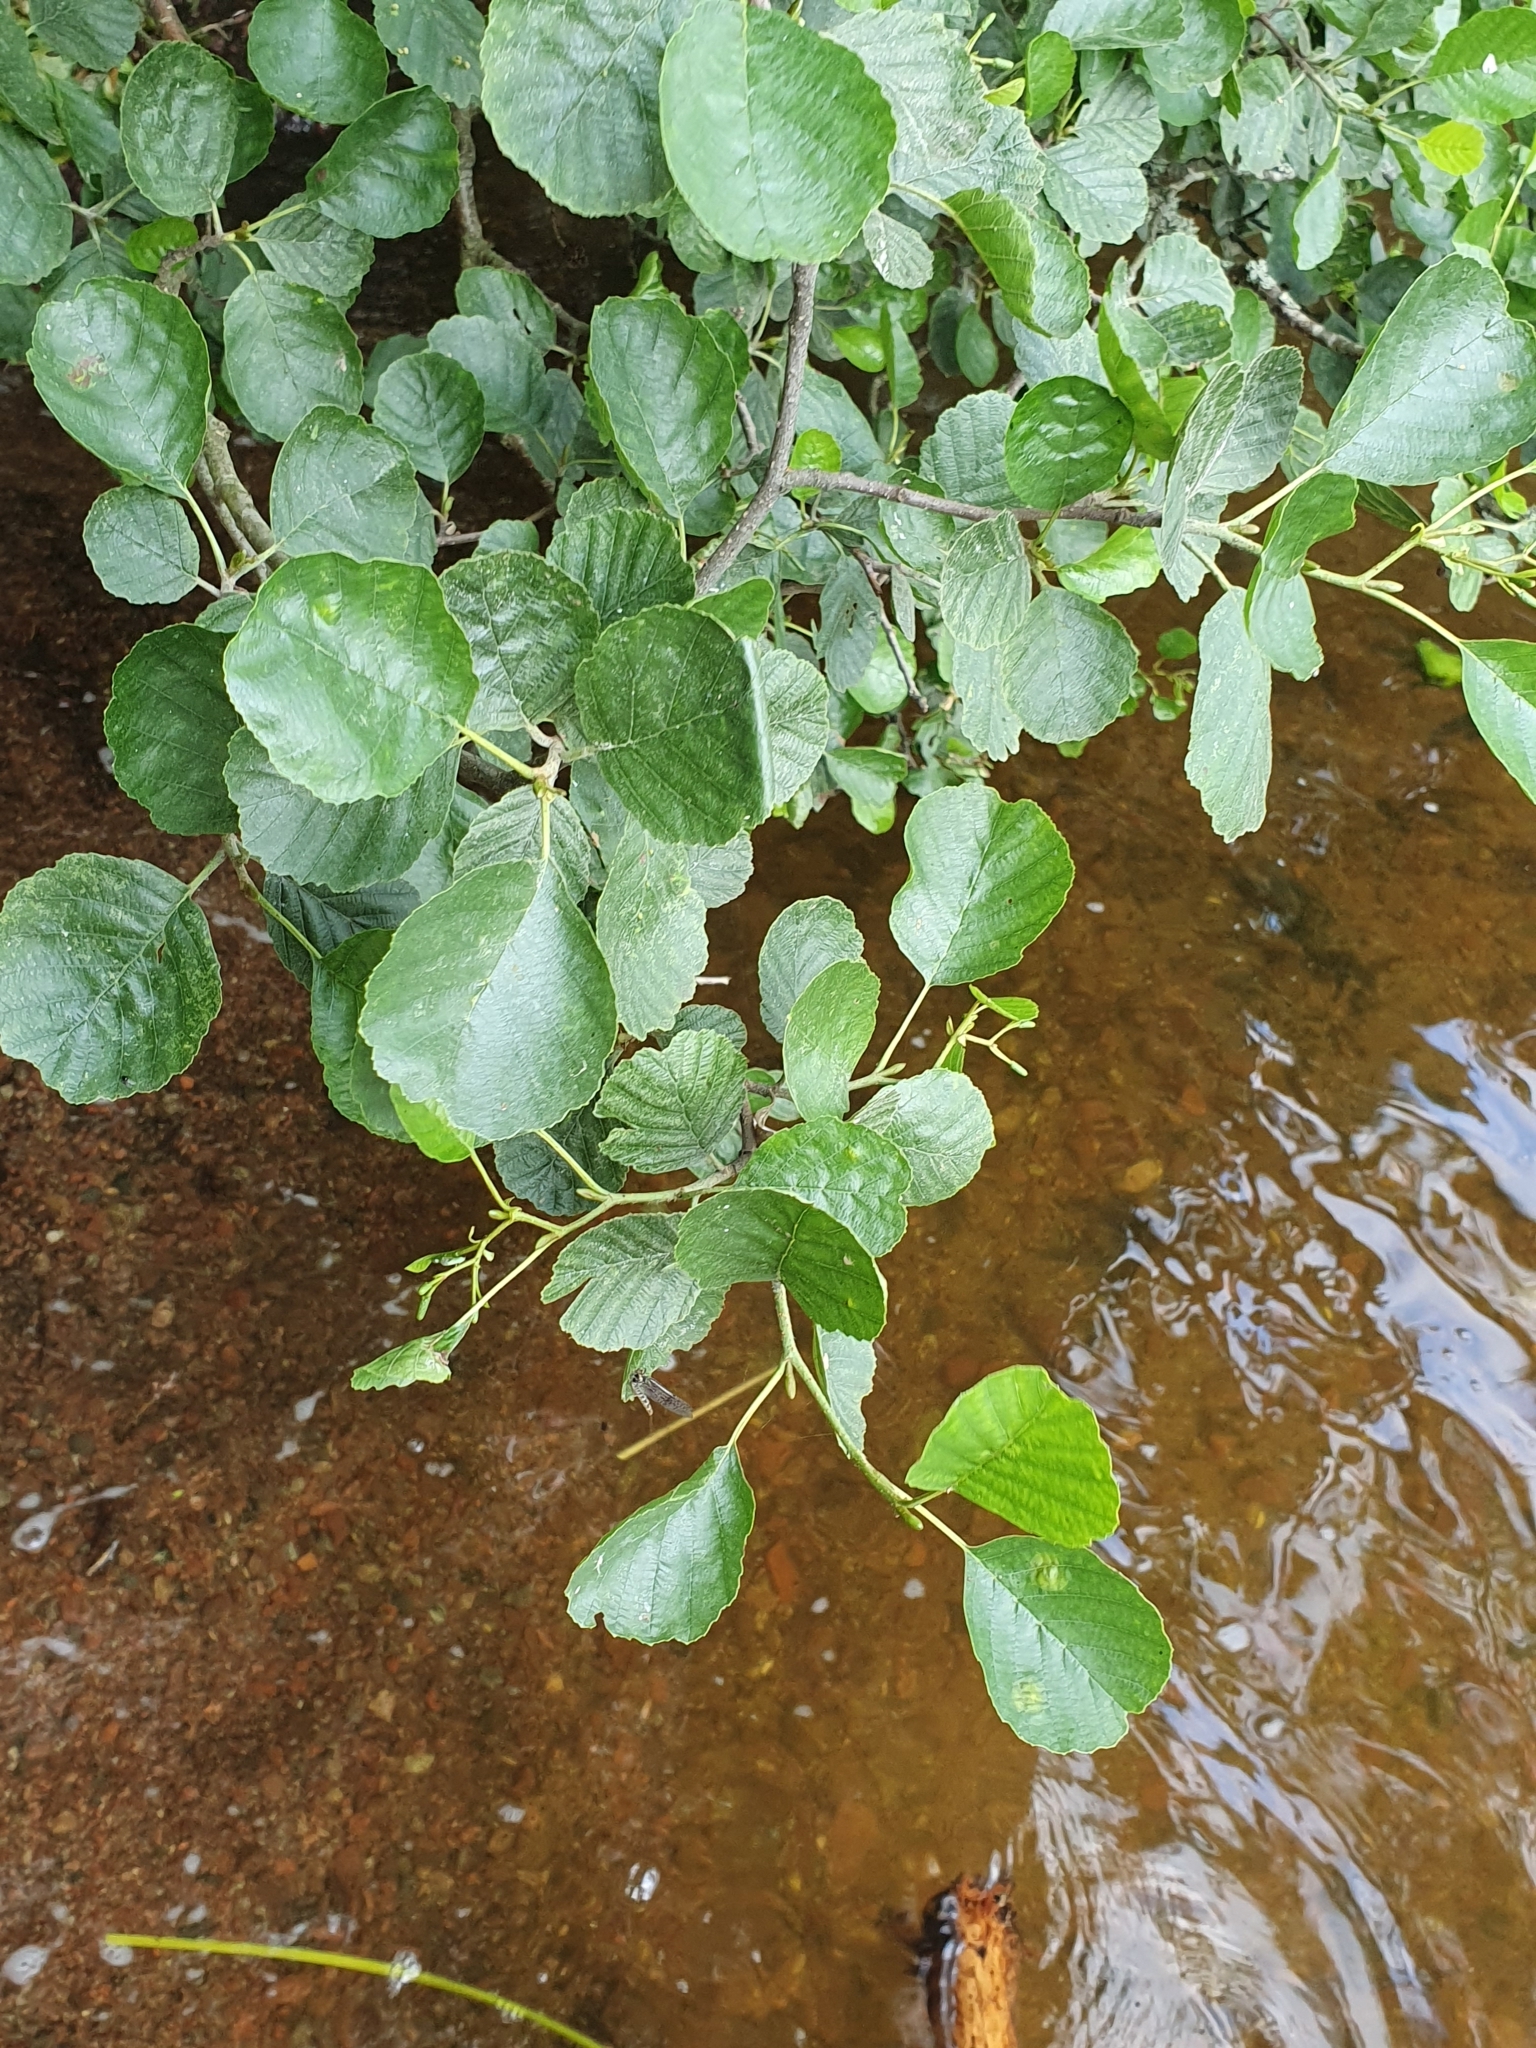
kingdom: Plantae
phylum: Tracheophyta
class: Magnoliopsida
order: Fagales
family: Betulaceae
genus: Alnus
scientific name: Alnus glutinosa
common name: Black alder
